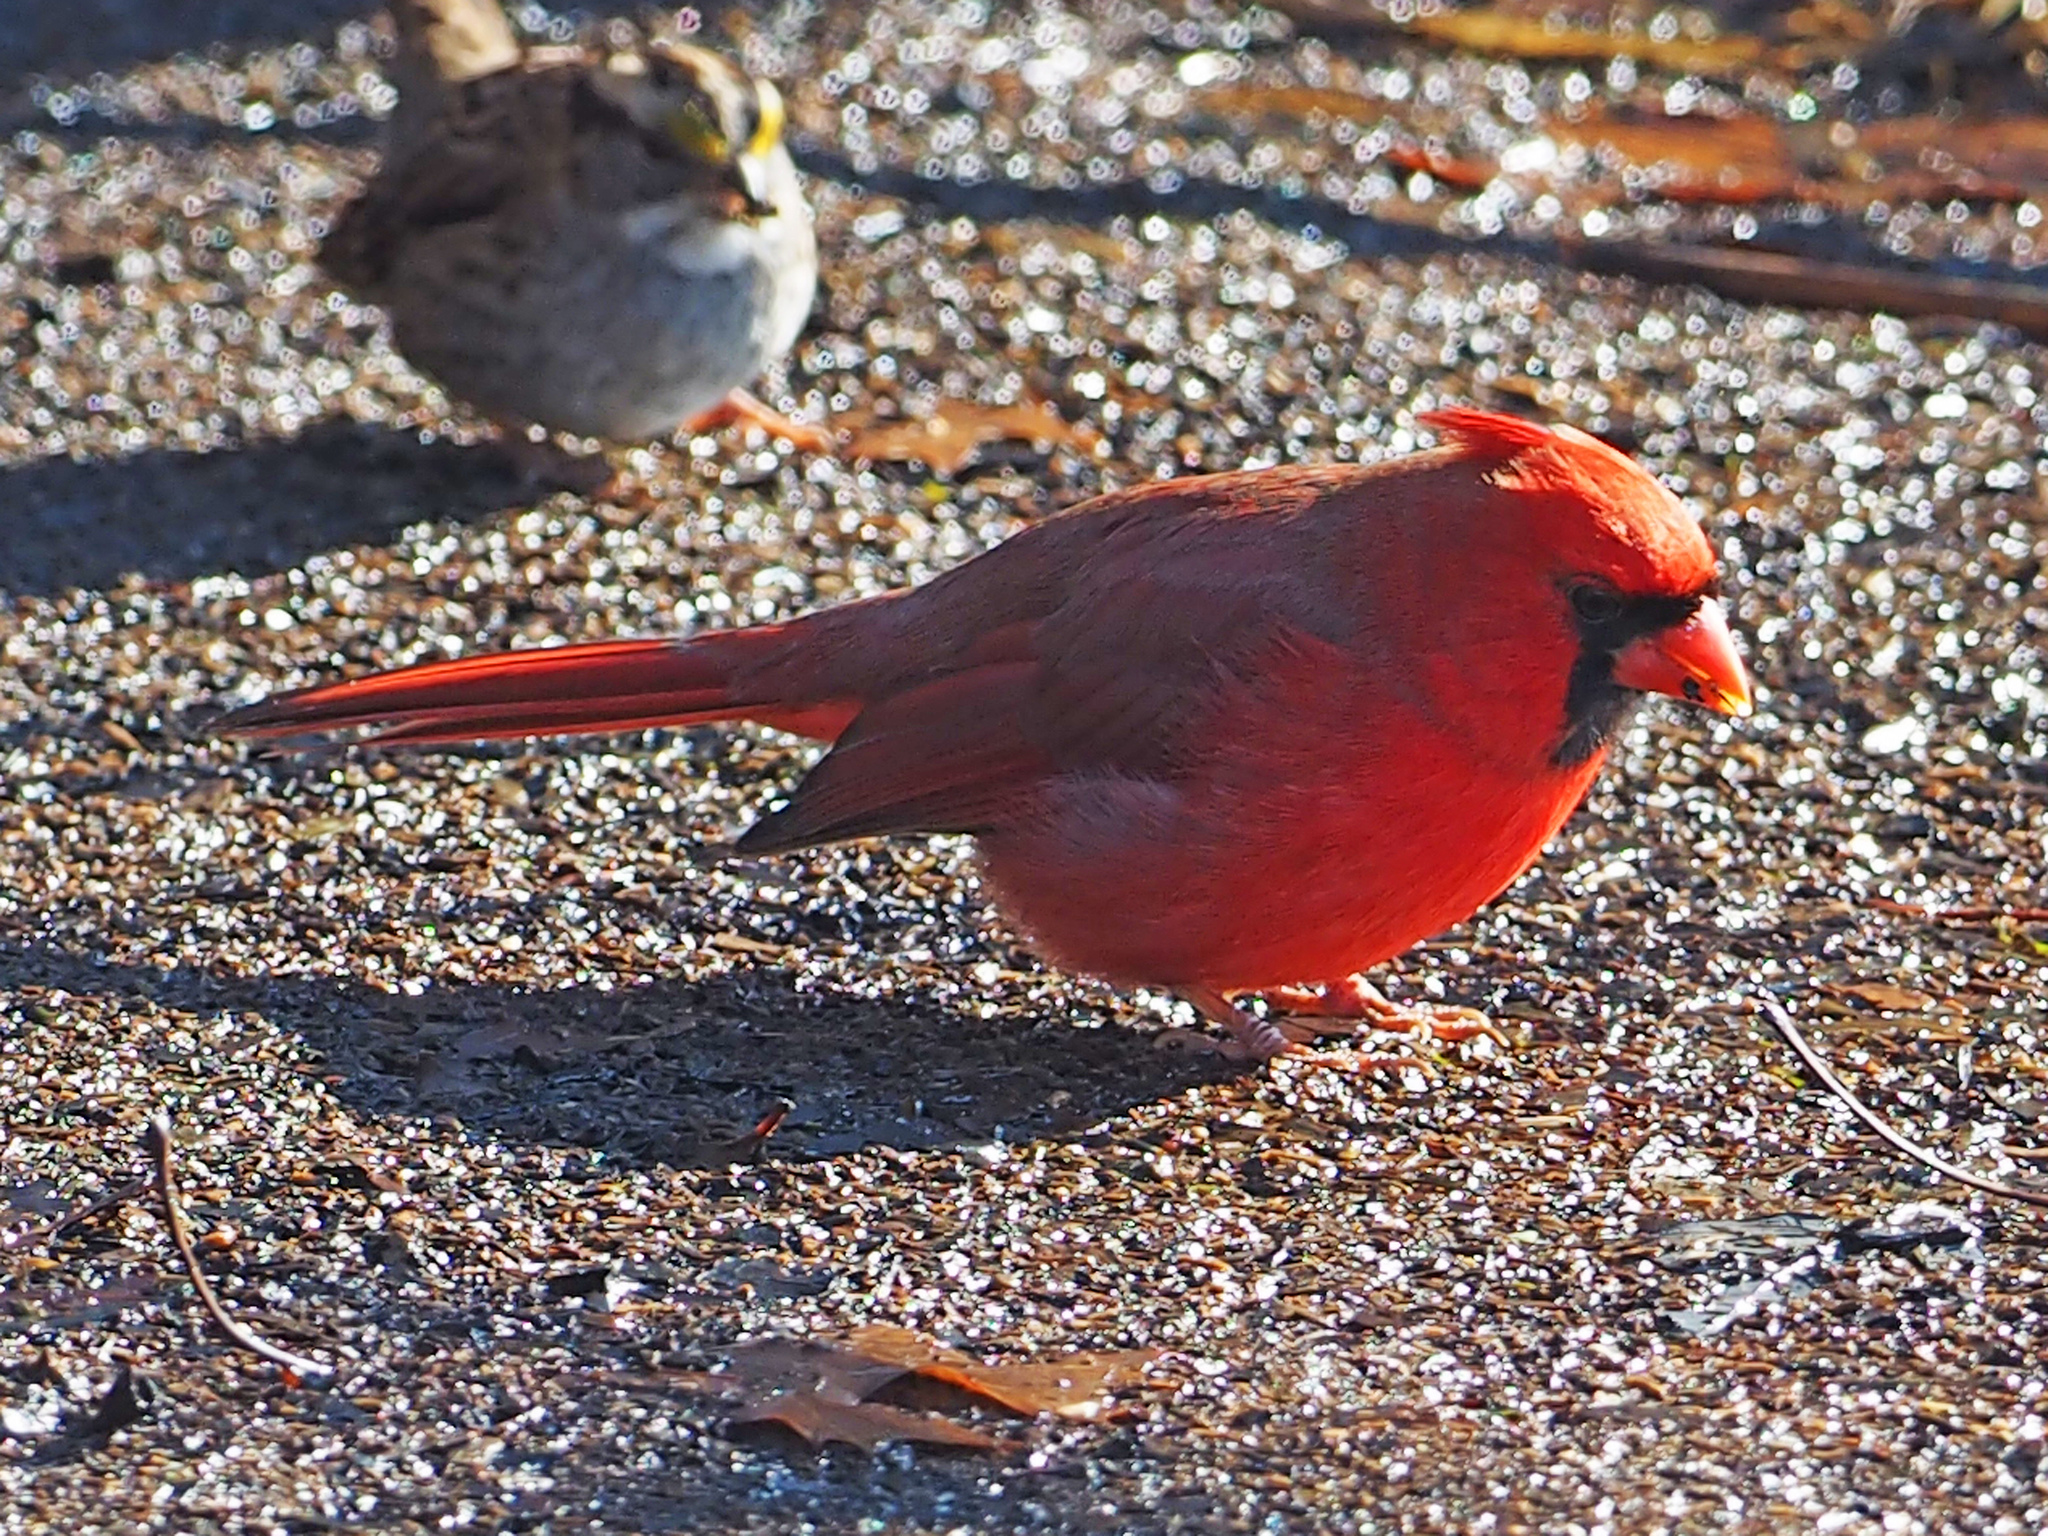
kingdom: Animalia
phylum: Chordata
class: Aves
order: Passeriformes
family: Cardinalidae
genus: Cardinalis
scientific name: Cardinalis cardinalis
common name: Northern cardinal
